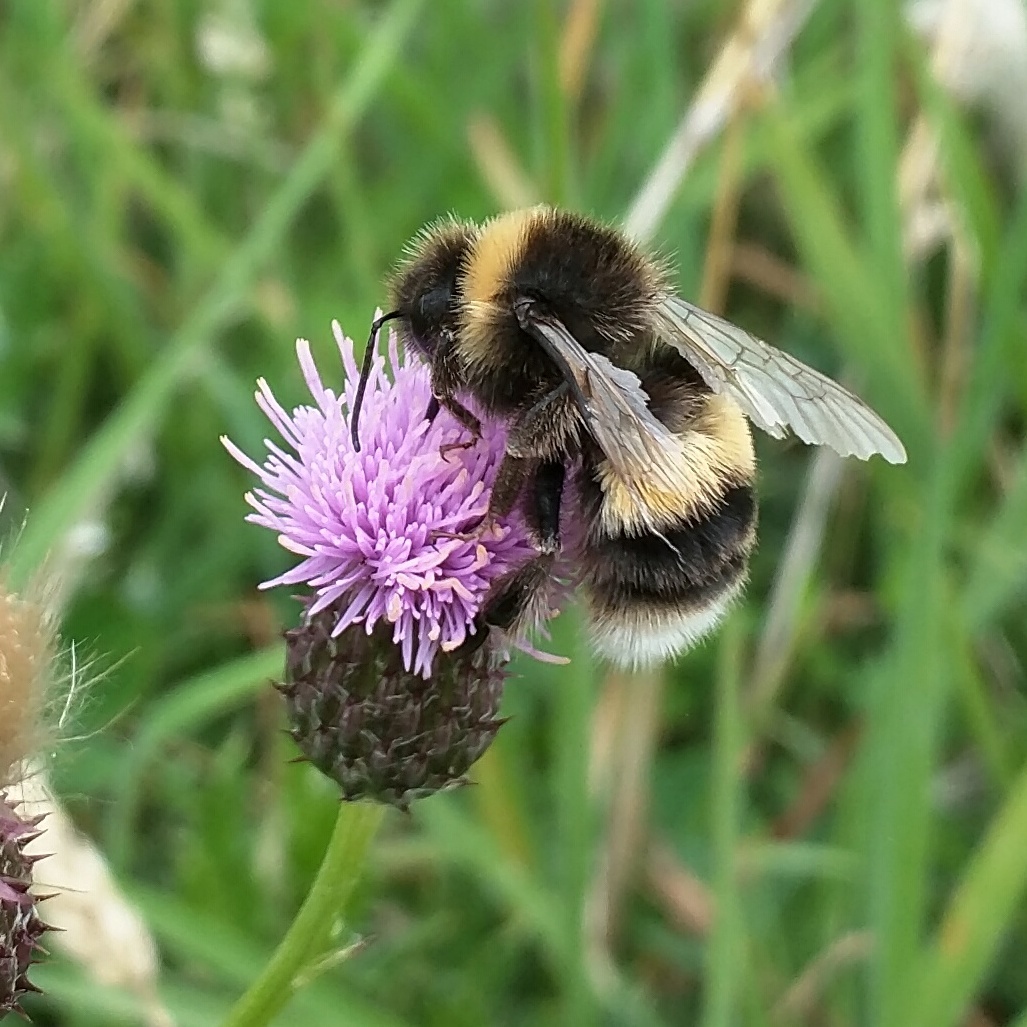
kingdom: Animalia
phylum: Arthropoda
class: Insecta
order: Hymenoptera
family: Apidae
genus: Bombus
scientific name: Bombus terrestris
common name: Buff-tailed bumblebee
